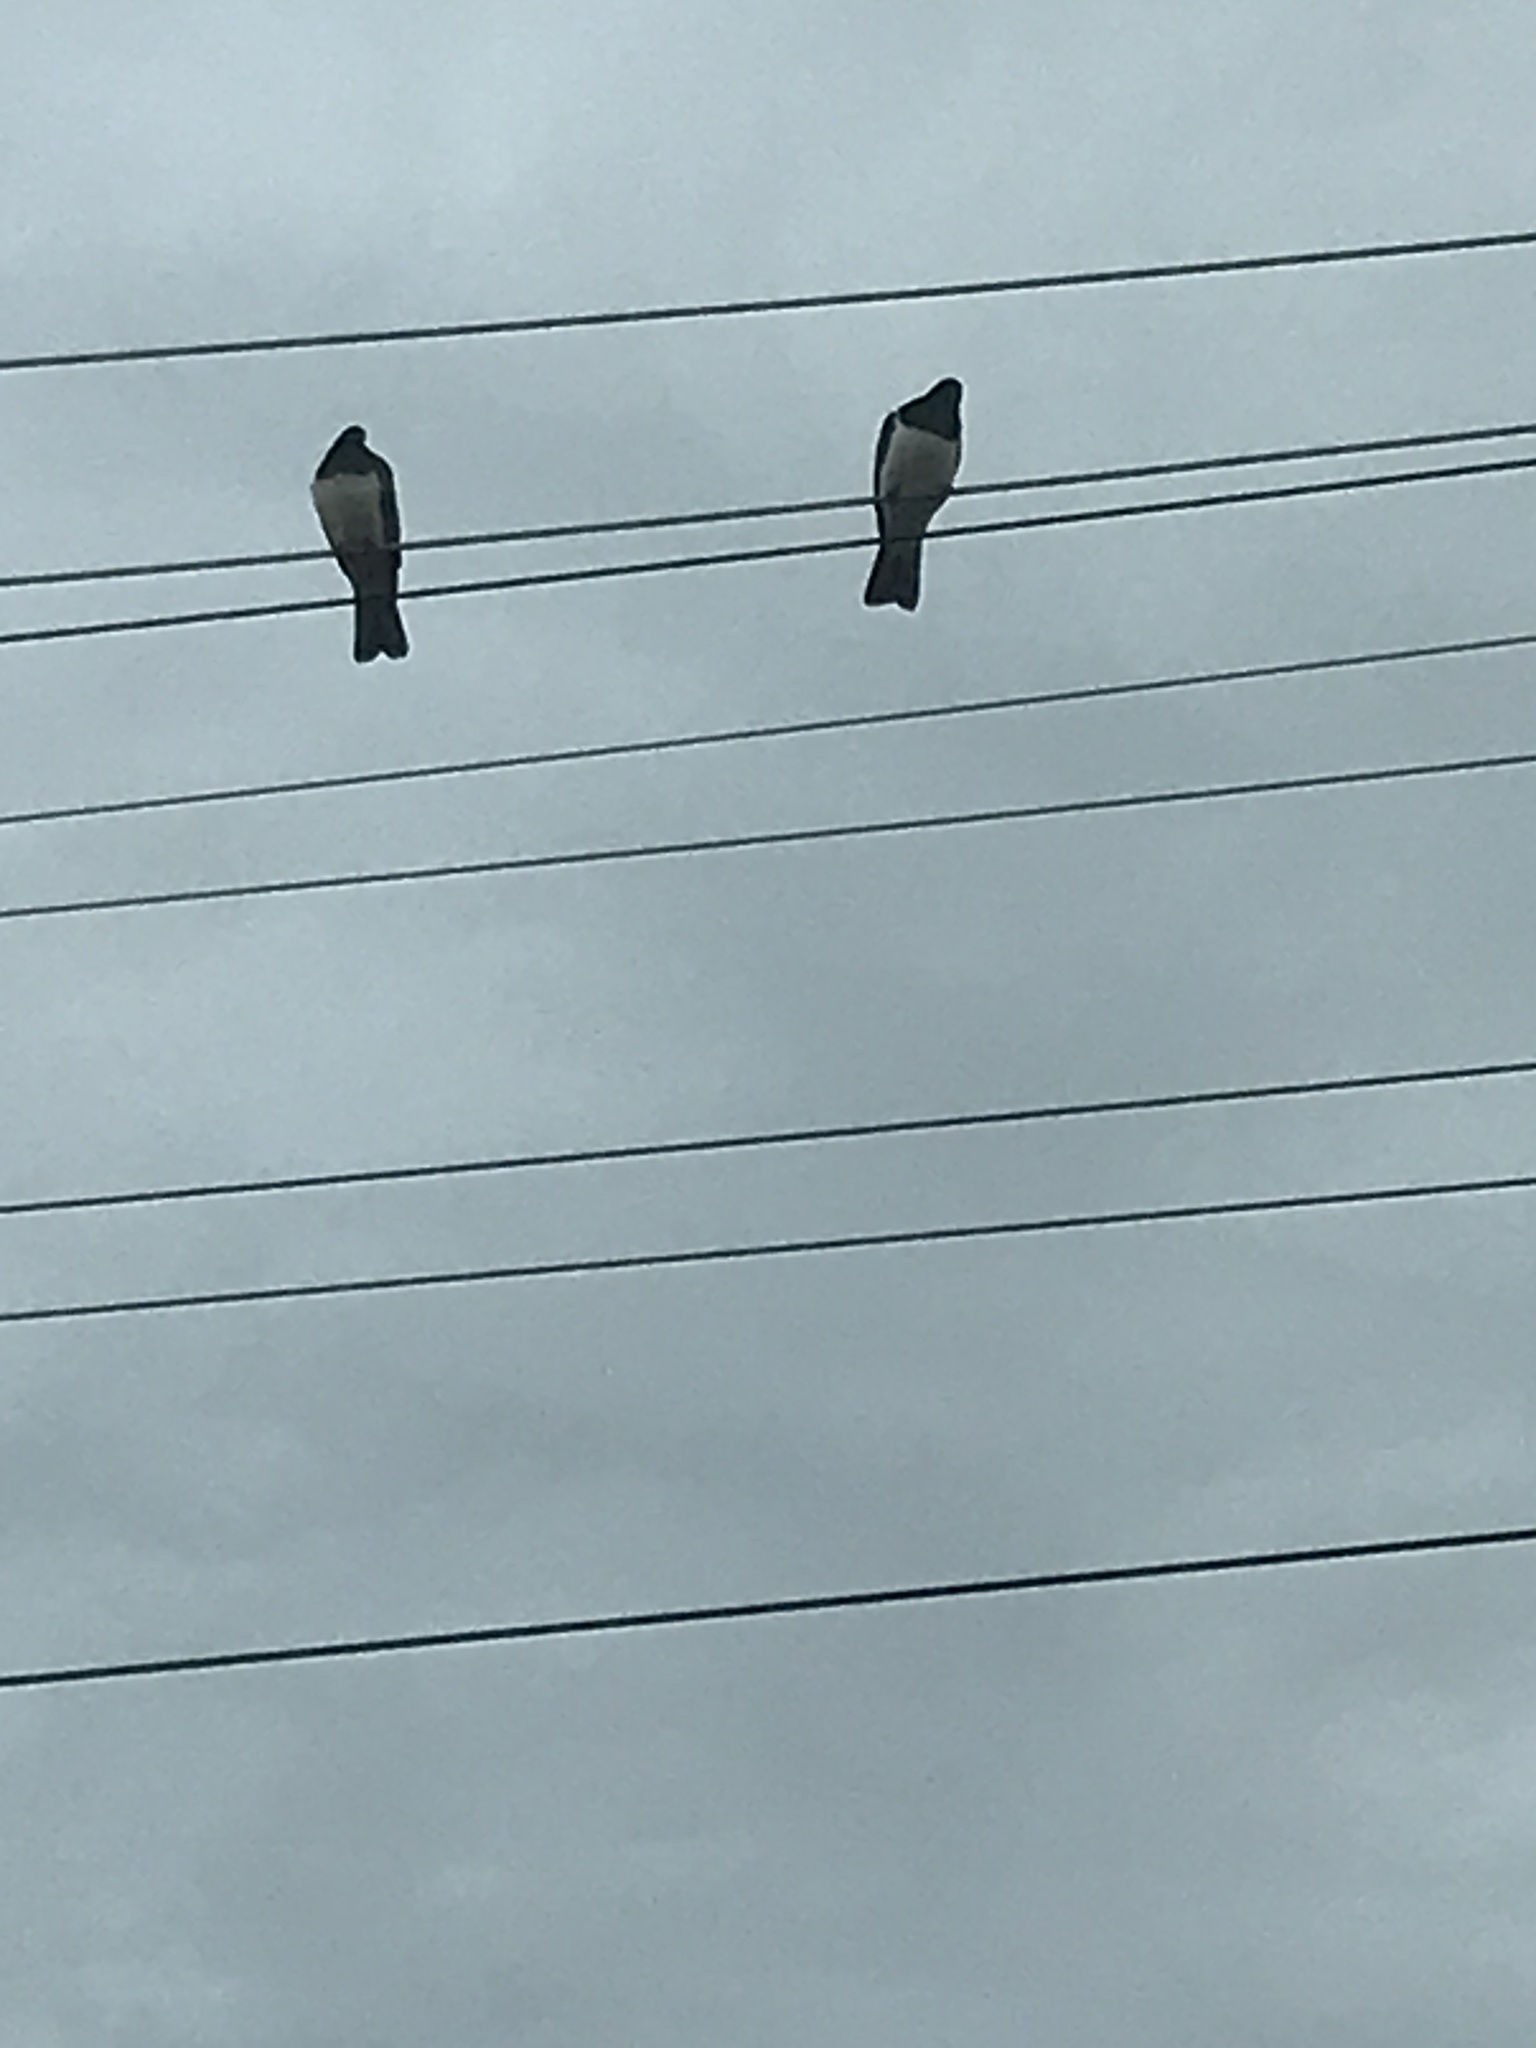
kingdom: Animalia
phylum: Chordata
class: Aves
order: Columbiformes
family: Columbidae
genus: Hemiphaga
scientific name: Hemiphaga novaeseelandiae
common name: New zealand pigeon
